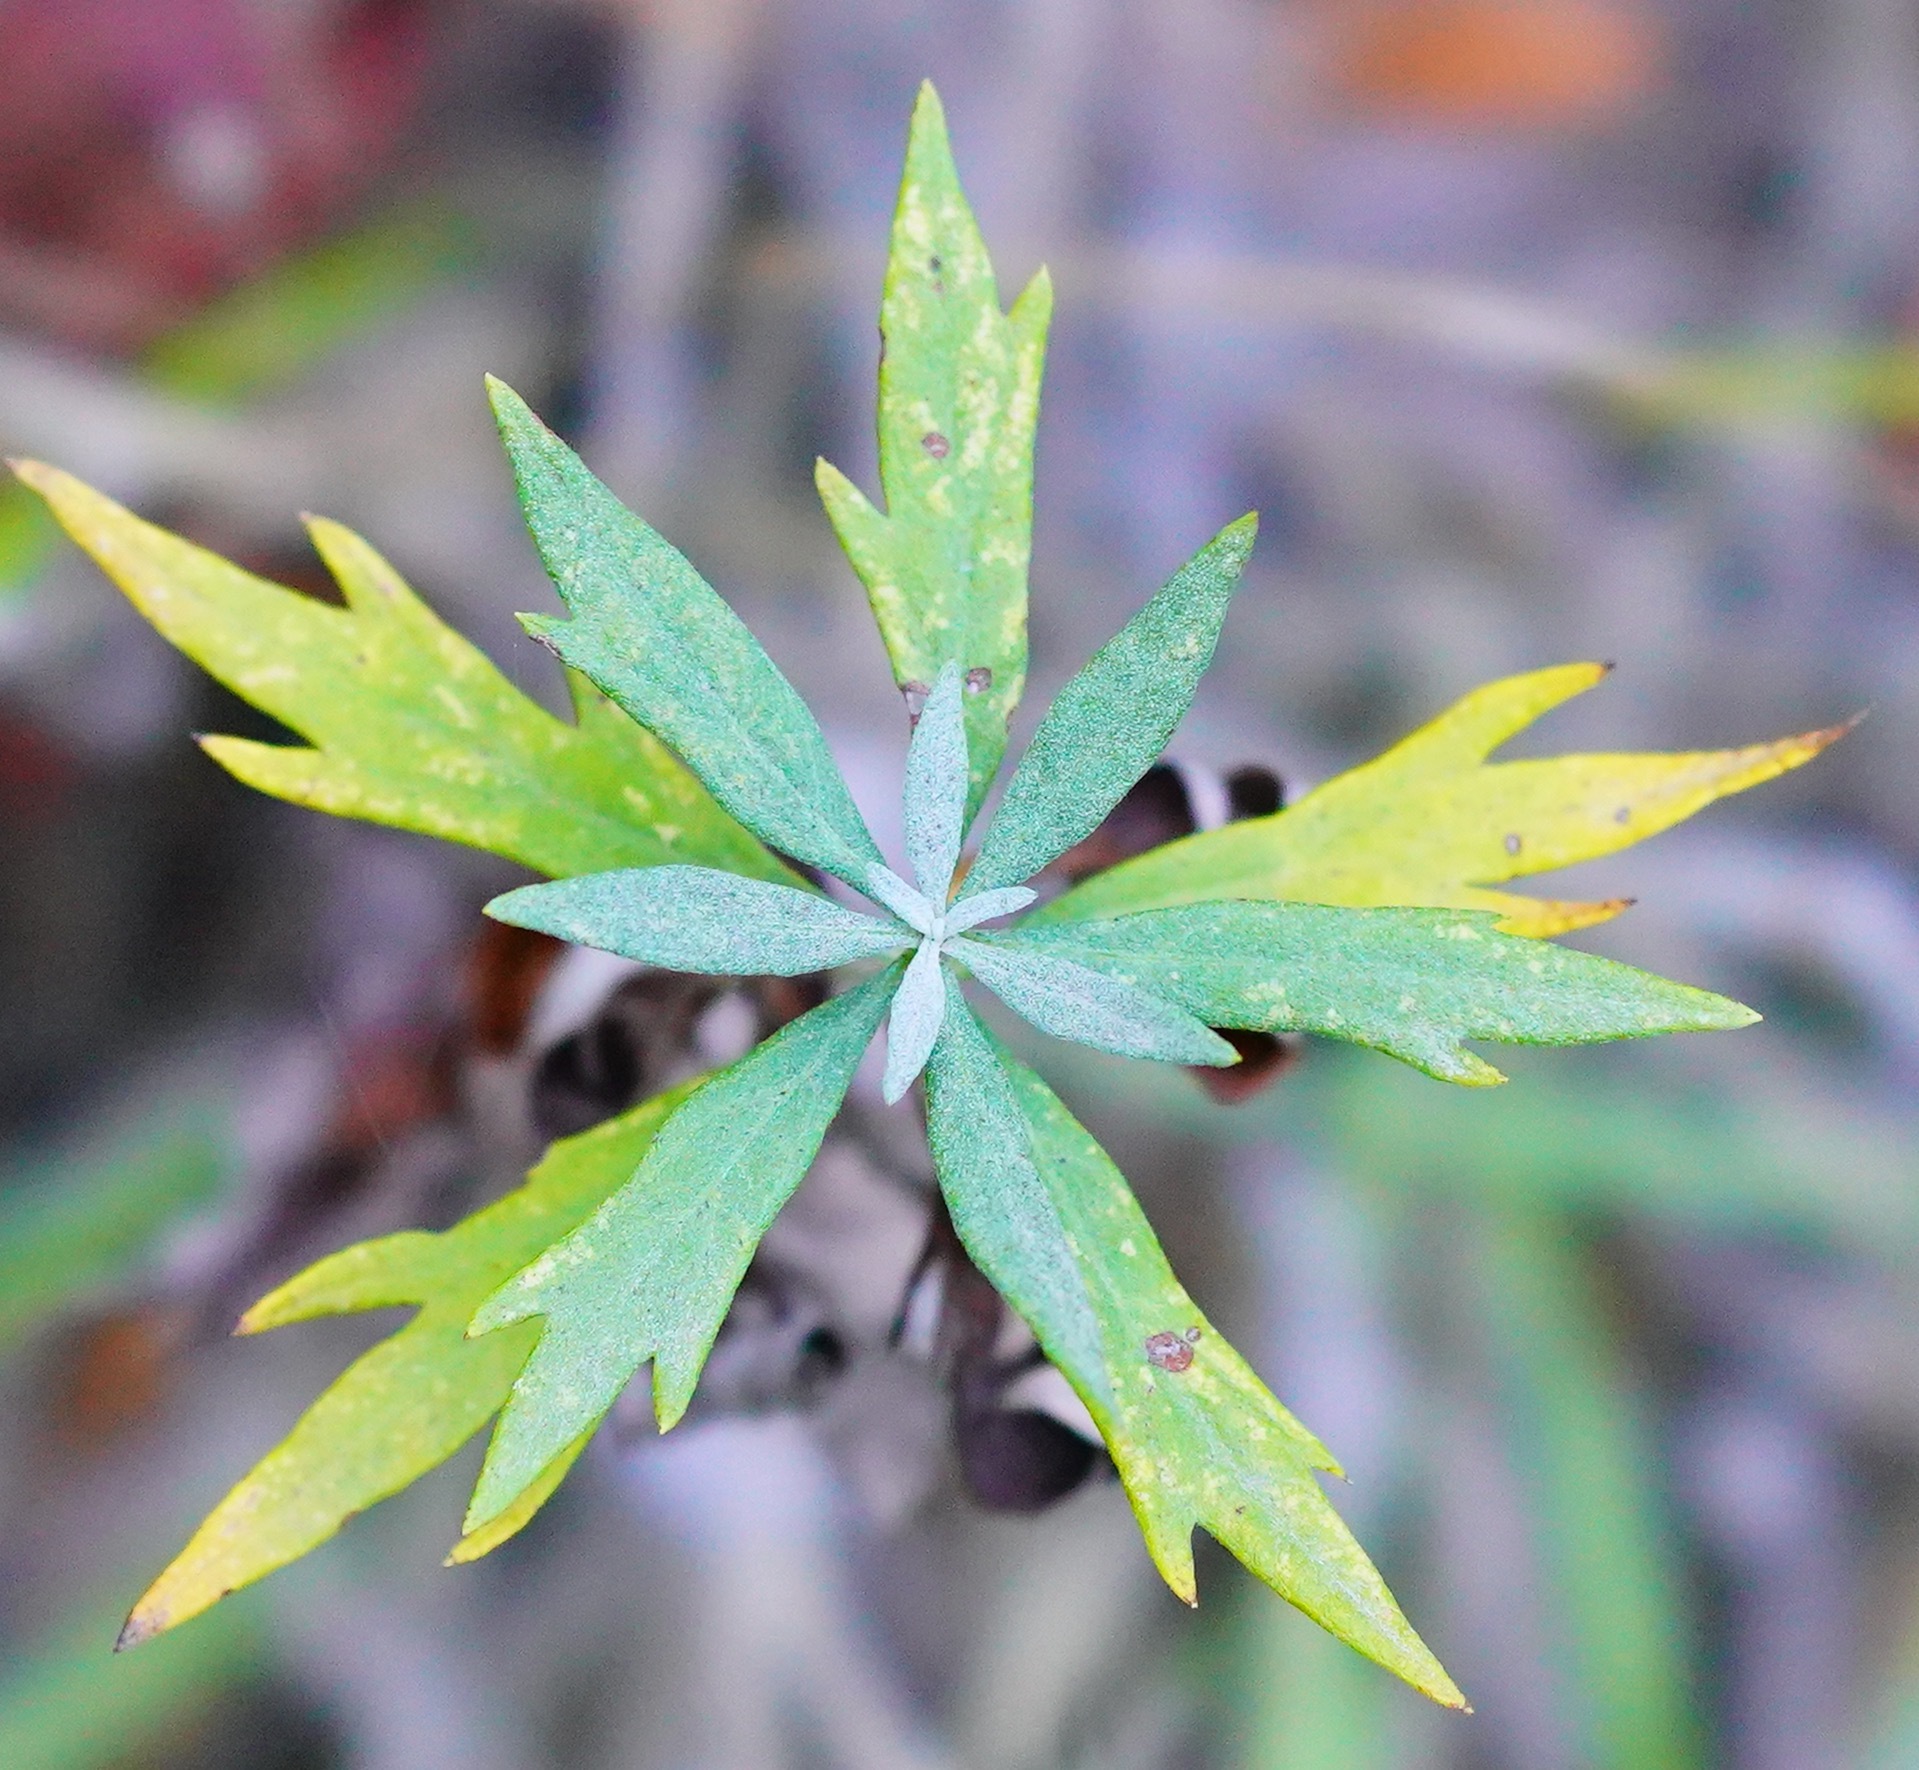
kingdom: Plantae
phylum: Tracheophyta
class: Magnoliopsida
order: Asterales
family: Asteraceae
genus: Artemisia
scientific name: Artemisia douglasiana
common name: Northwest mugwort
